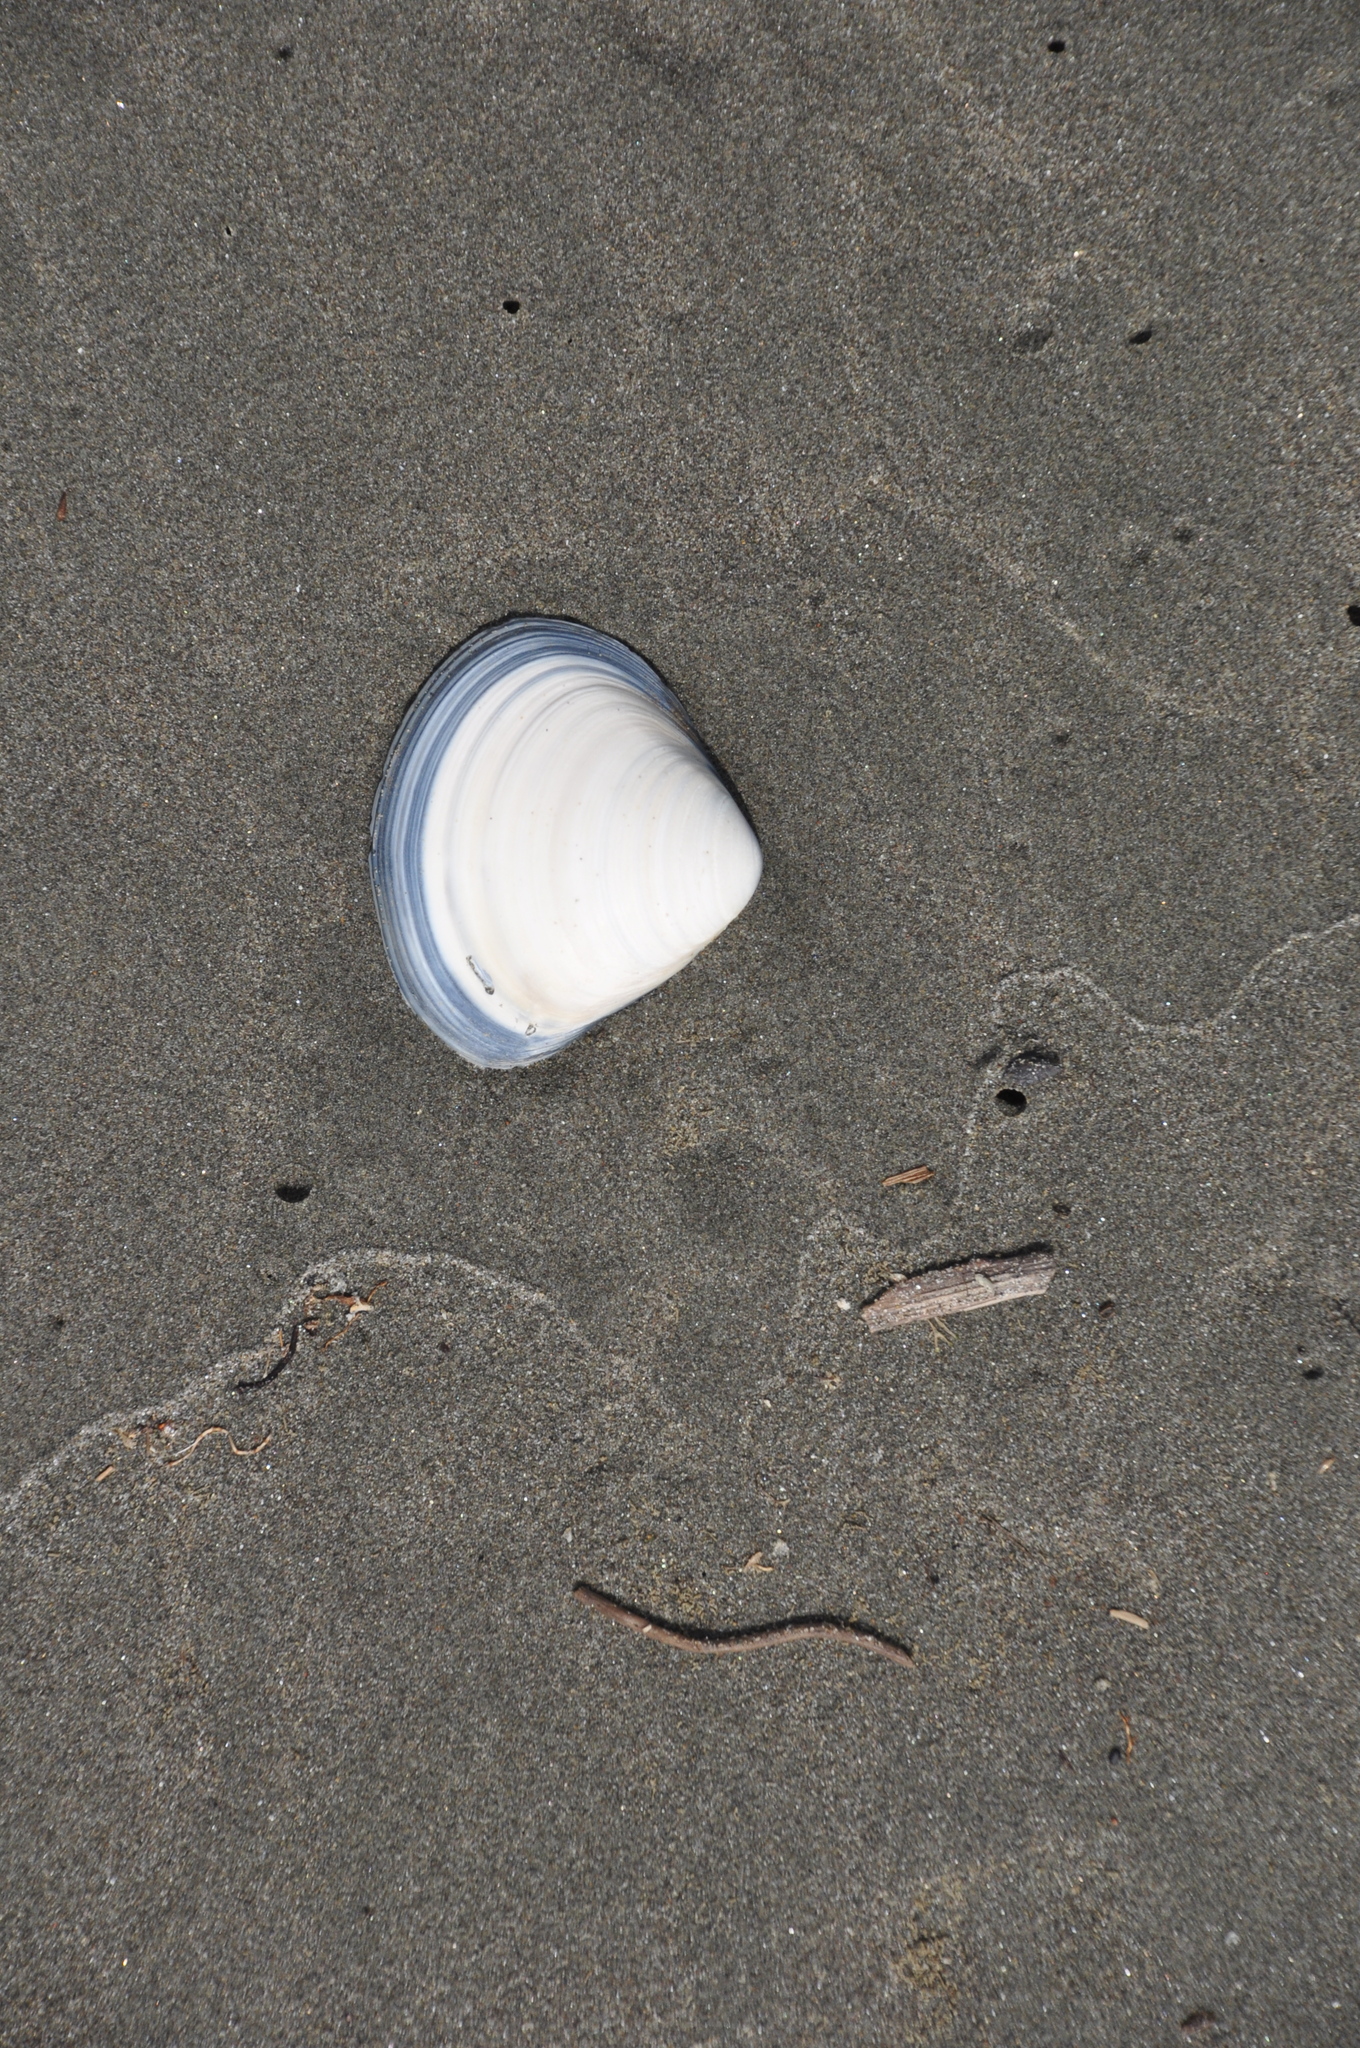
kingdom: Animalia
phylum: Mollusca
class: Bivalvia
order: Venerida
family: Mactridae
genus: Spisula
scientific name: Spisula murchisoni
